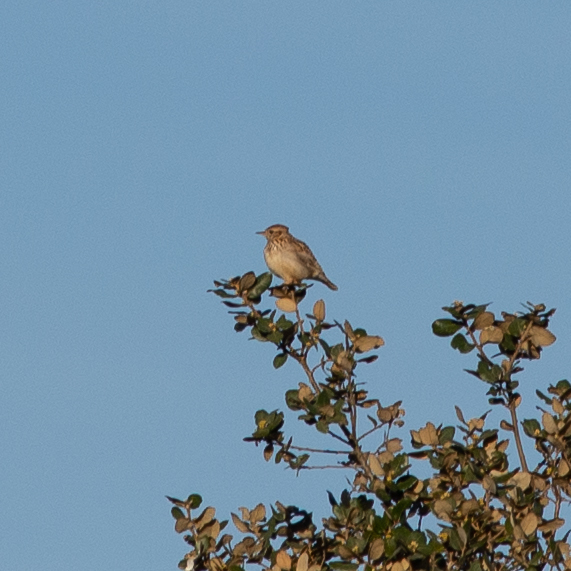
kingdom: Animalia
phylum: Chordata
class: Aves
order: Passeriformes
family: Alaudidae
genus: Lullula
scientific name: Lullula arborea
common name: Woodlark
